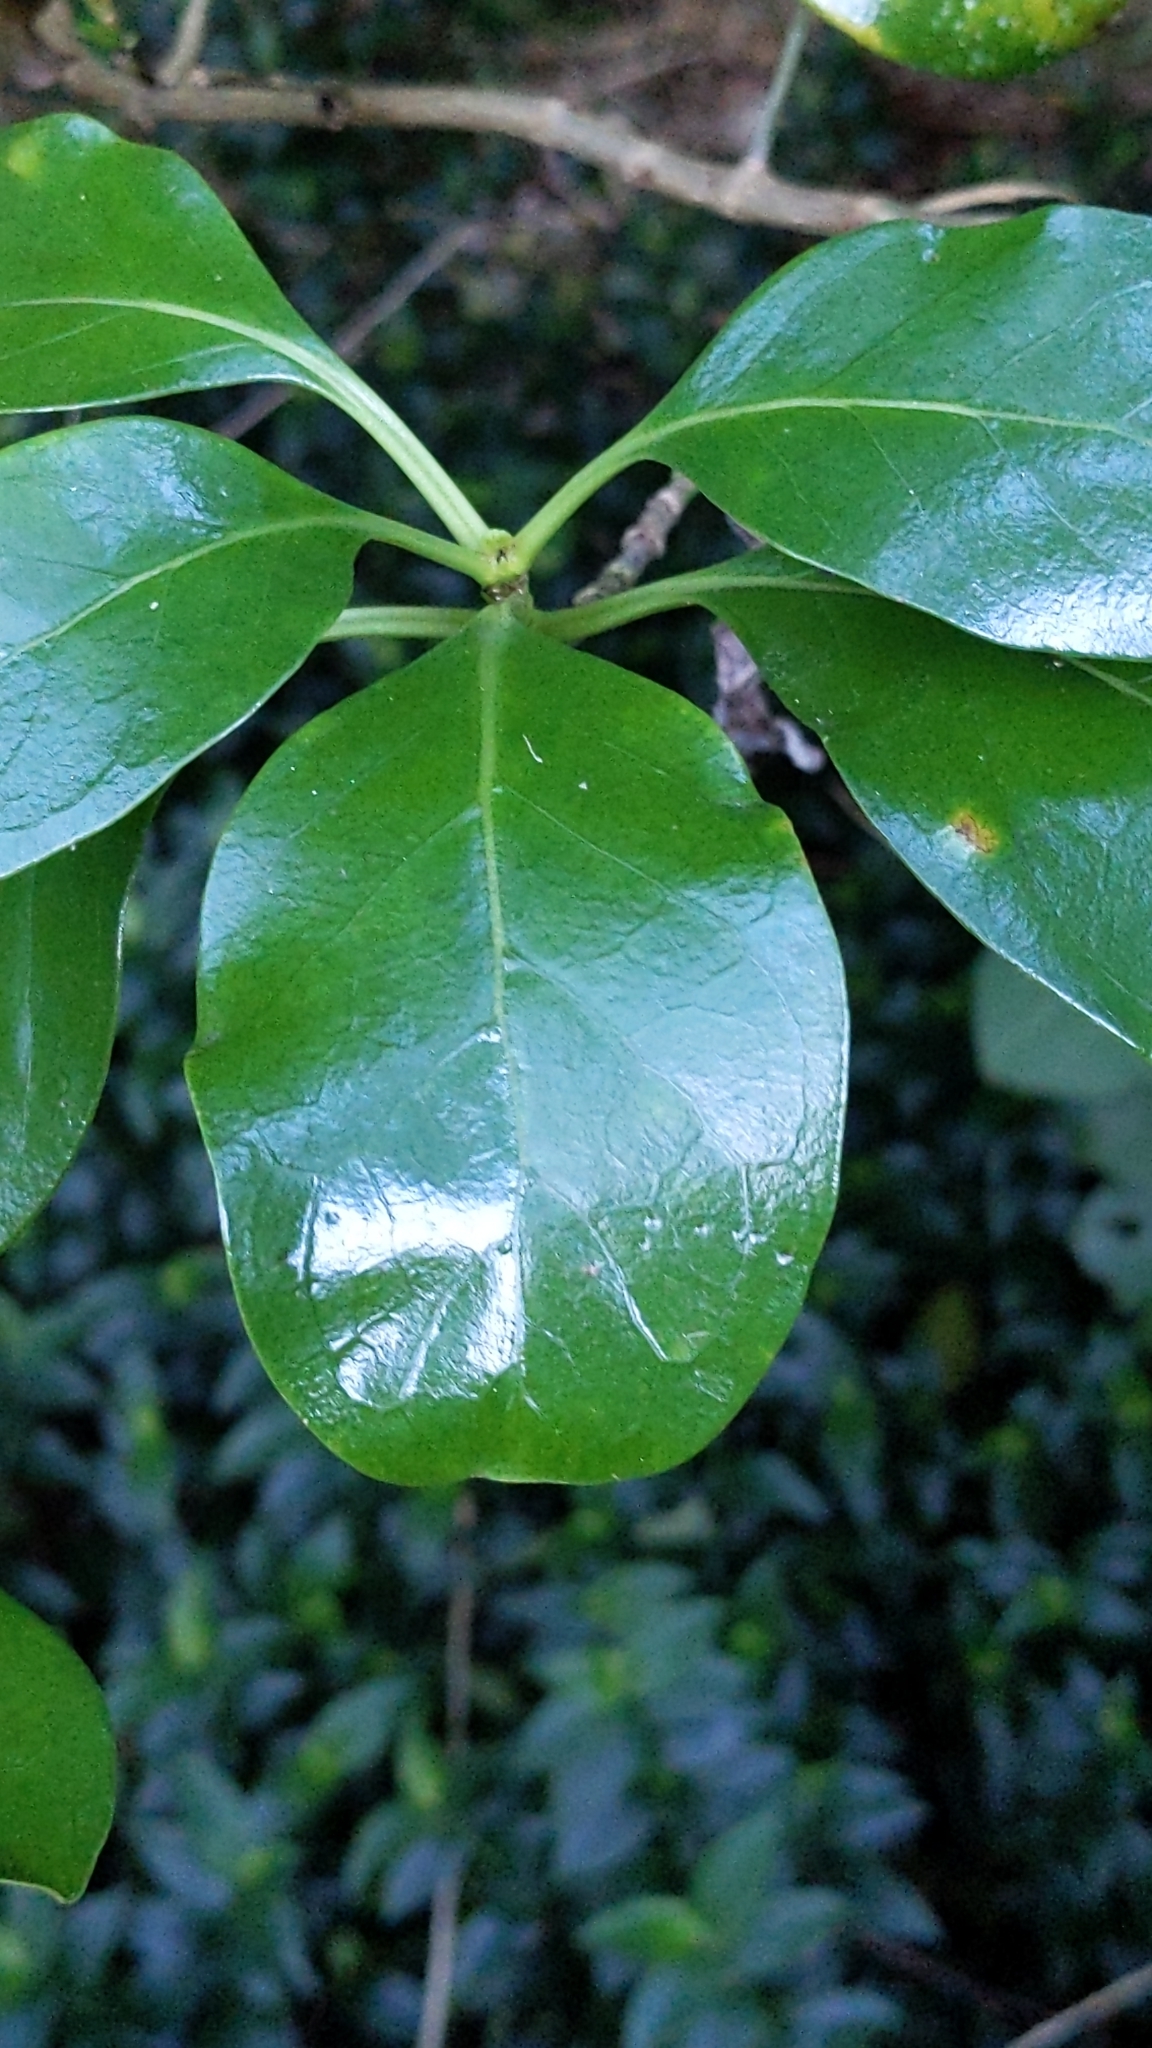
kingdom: Plantae
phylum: Tracheophyta
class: Magnoliopsida
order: Gentianales
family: Rubiaceae
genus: Coprosma
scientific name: Coprosma repens
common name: Tree bedstraw
